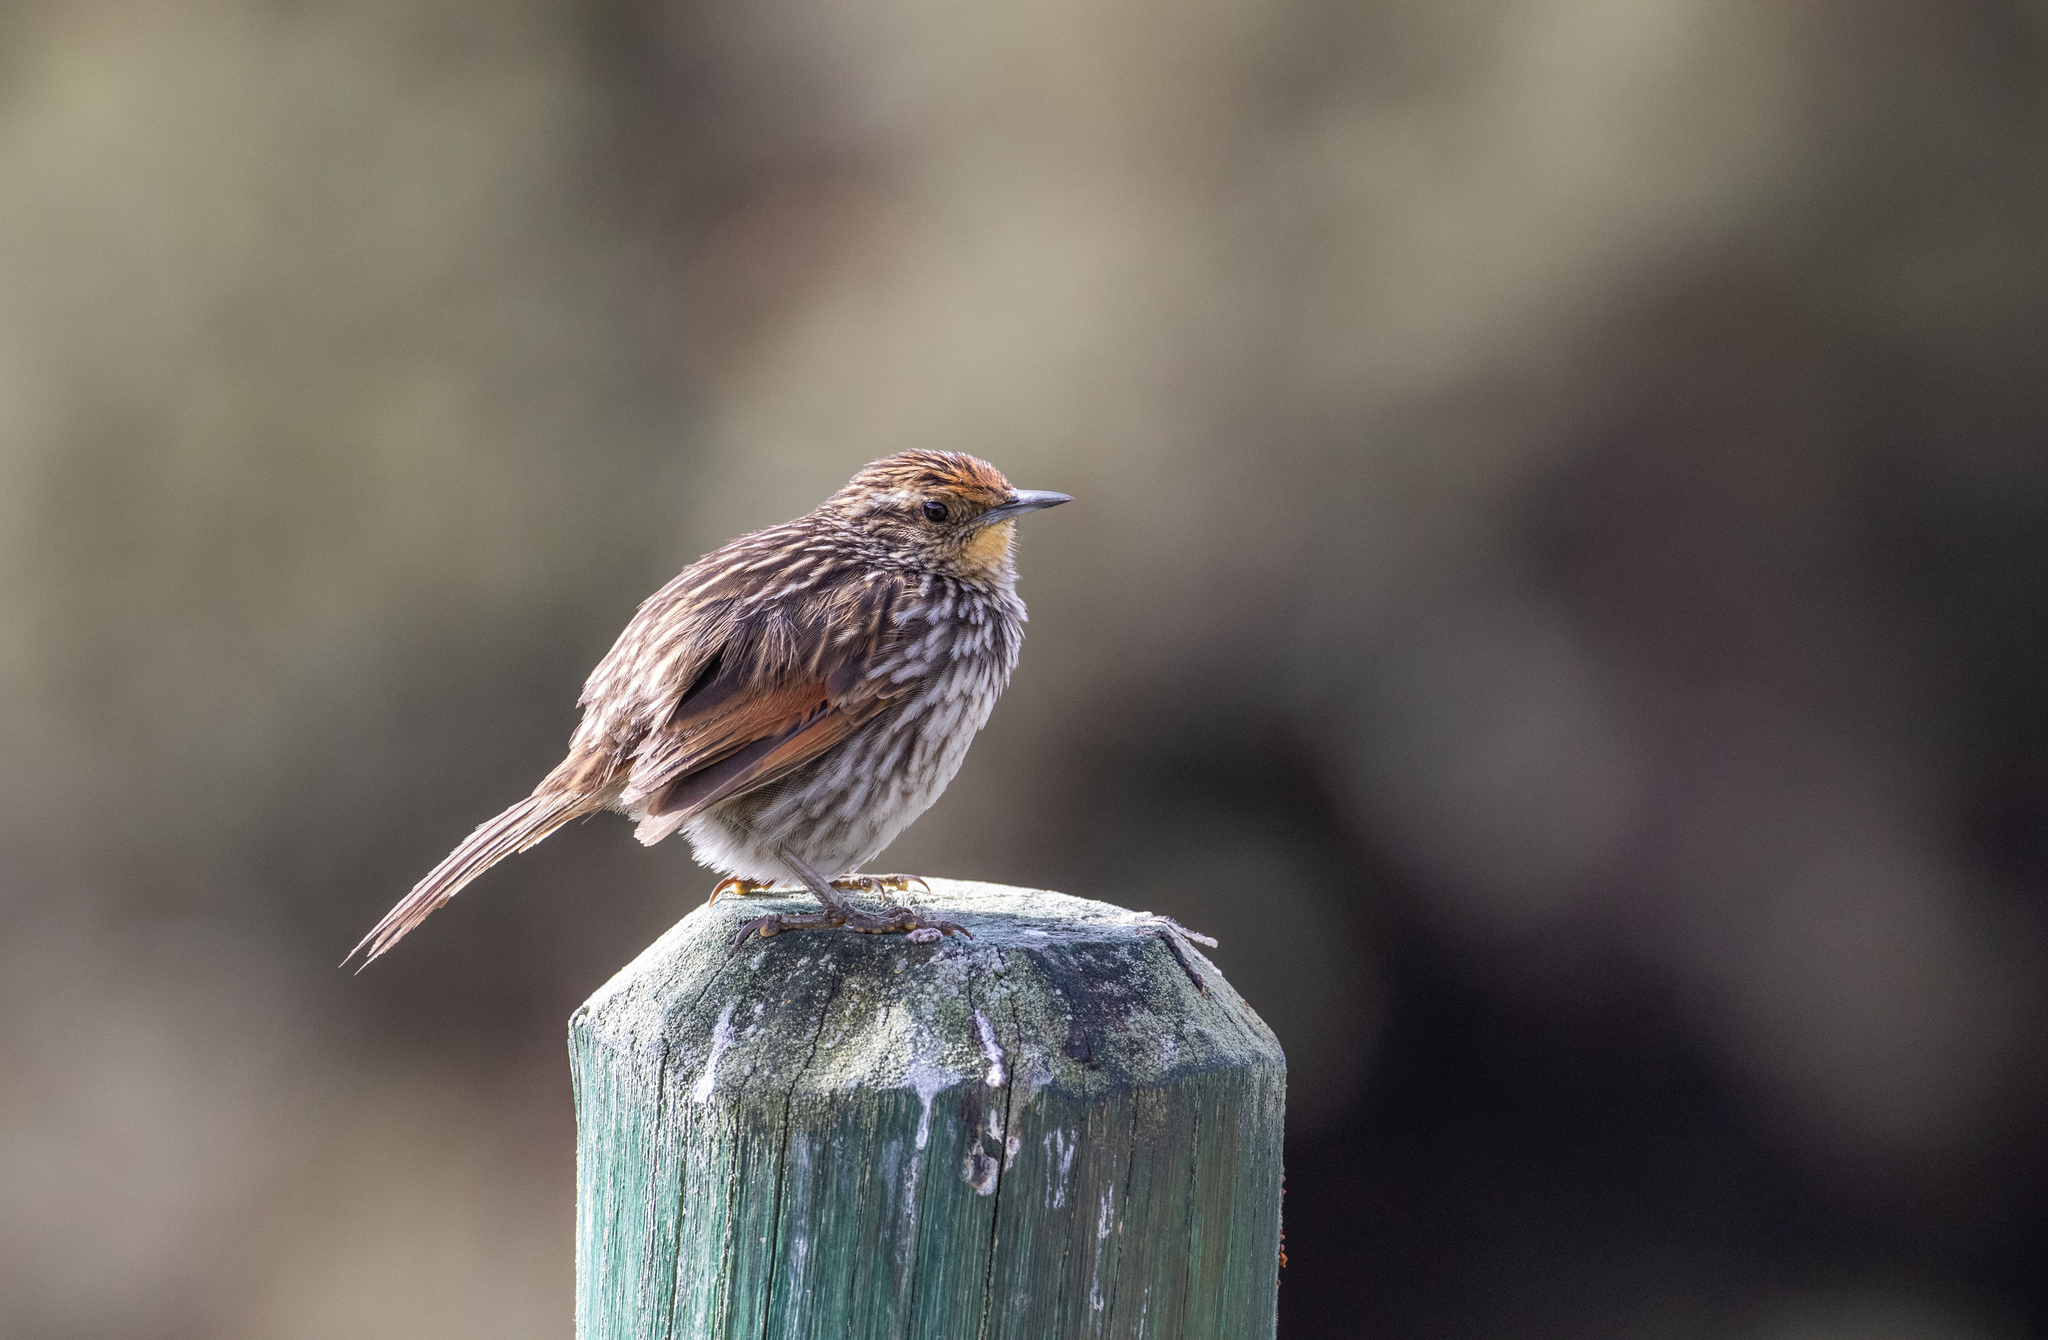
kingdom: Animalia
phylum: Chordata
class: Aves
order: Passeriformes
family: Furnariidae
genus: Asthenes
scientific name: Asthenes flammulata
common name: Many-striped canastero
